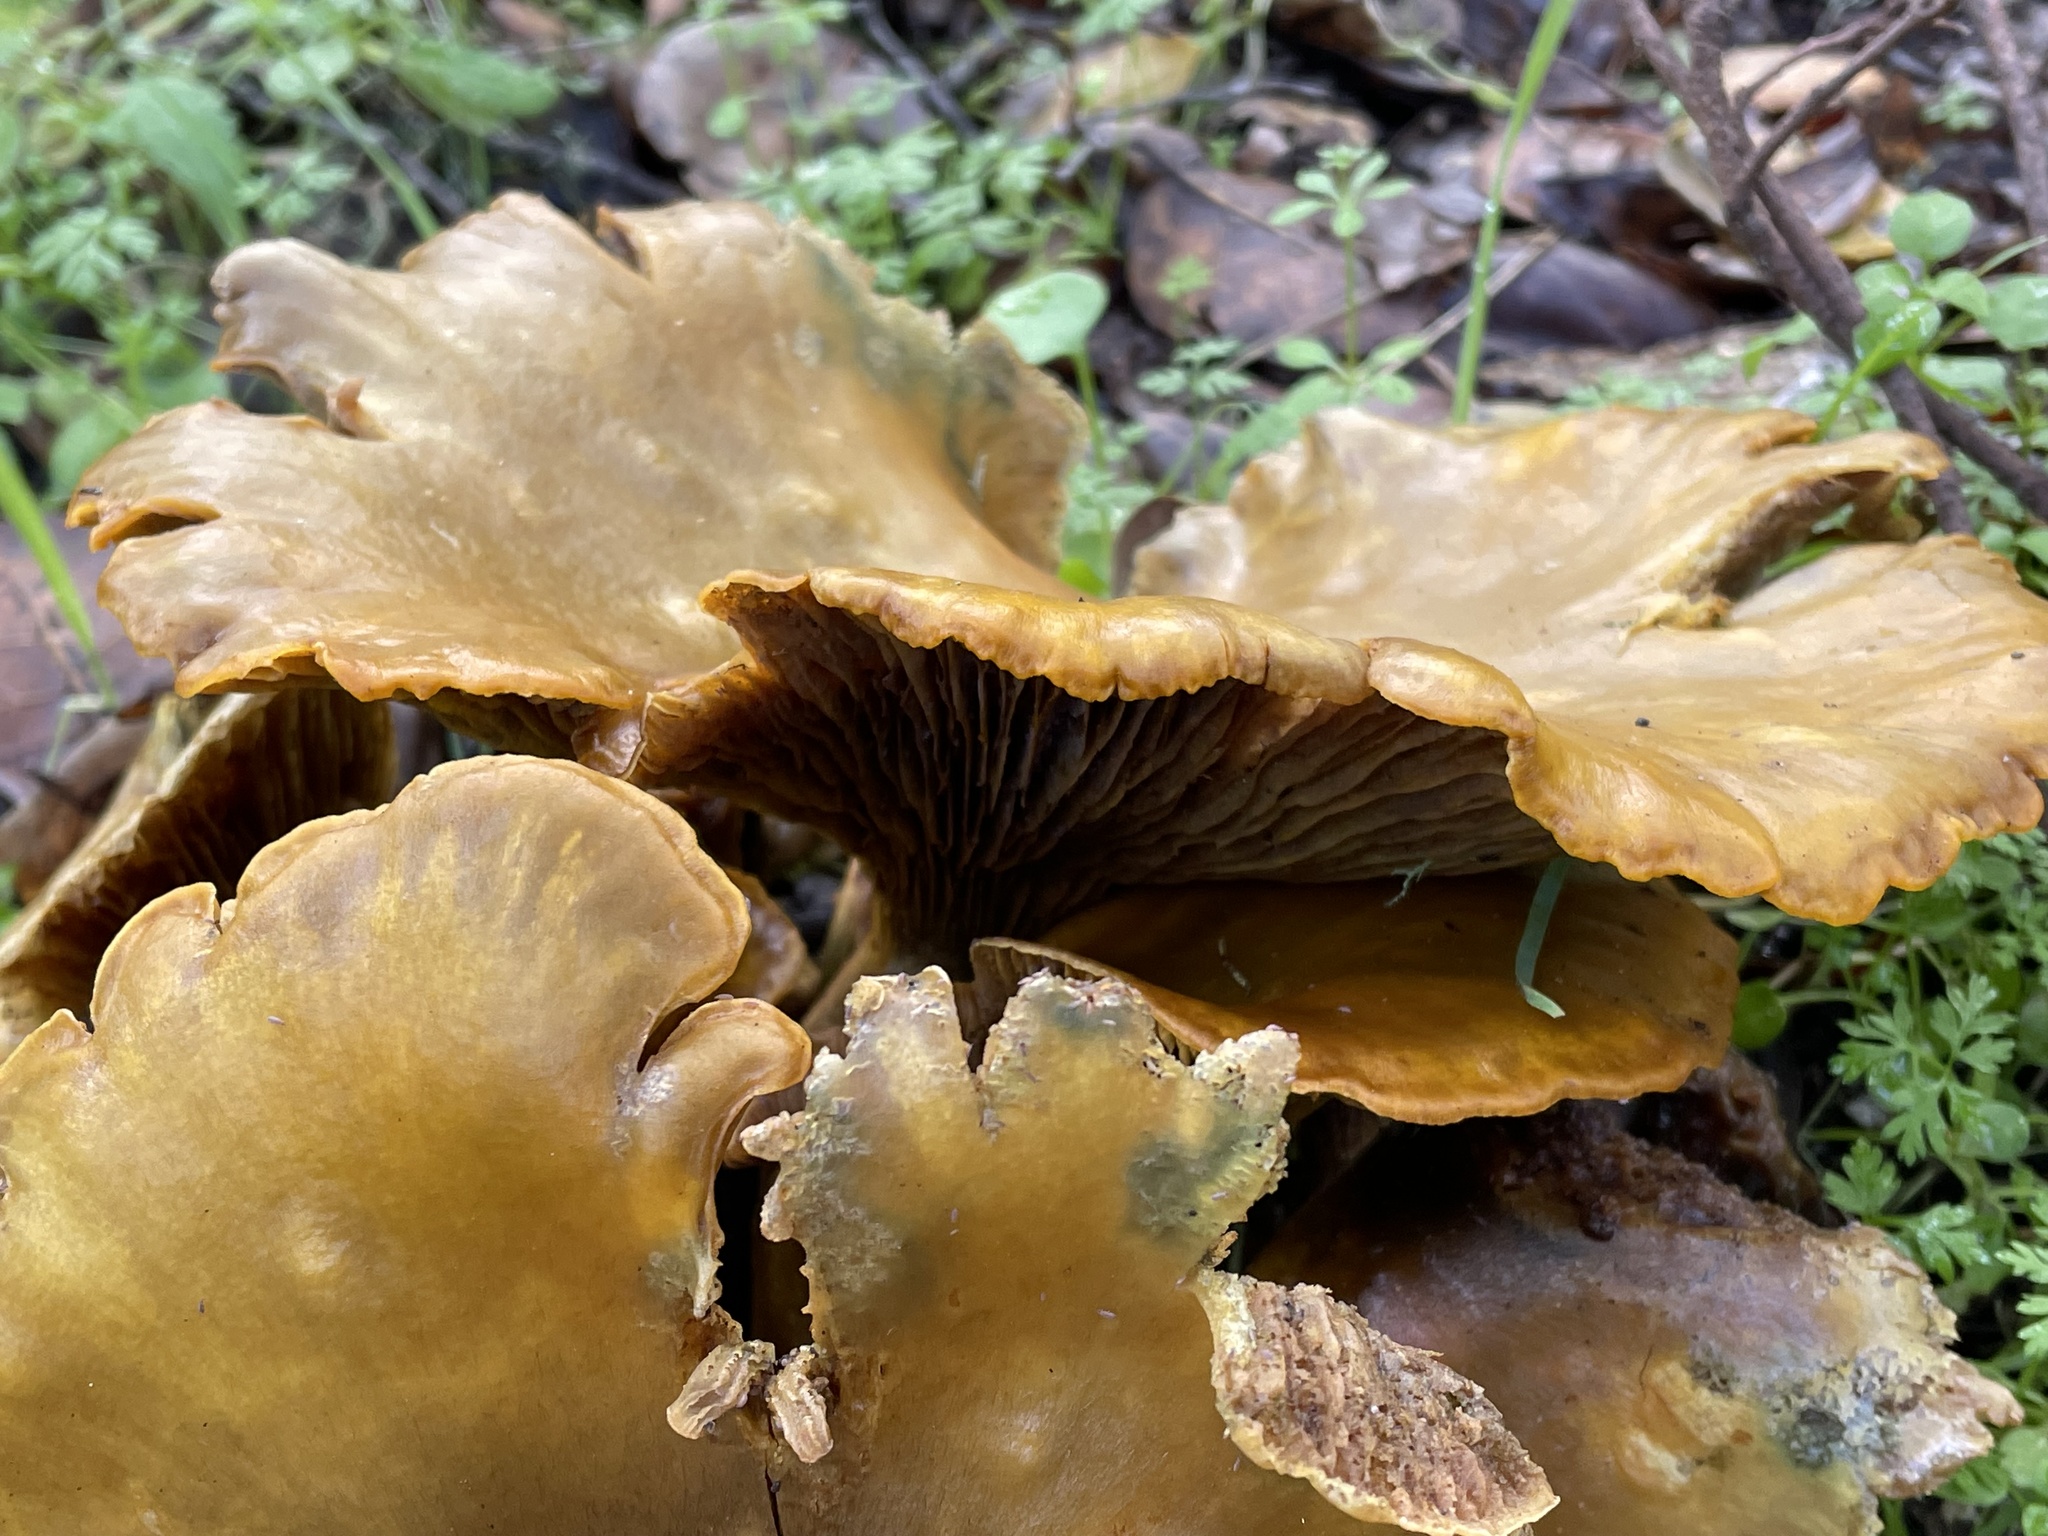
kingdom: Fungi
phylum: Basidiomycota
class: Agaricomycetes
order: Agaricales
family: Omphalotaceae
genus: Omphalotus
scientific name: Omphalotus olivascens
